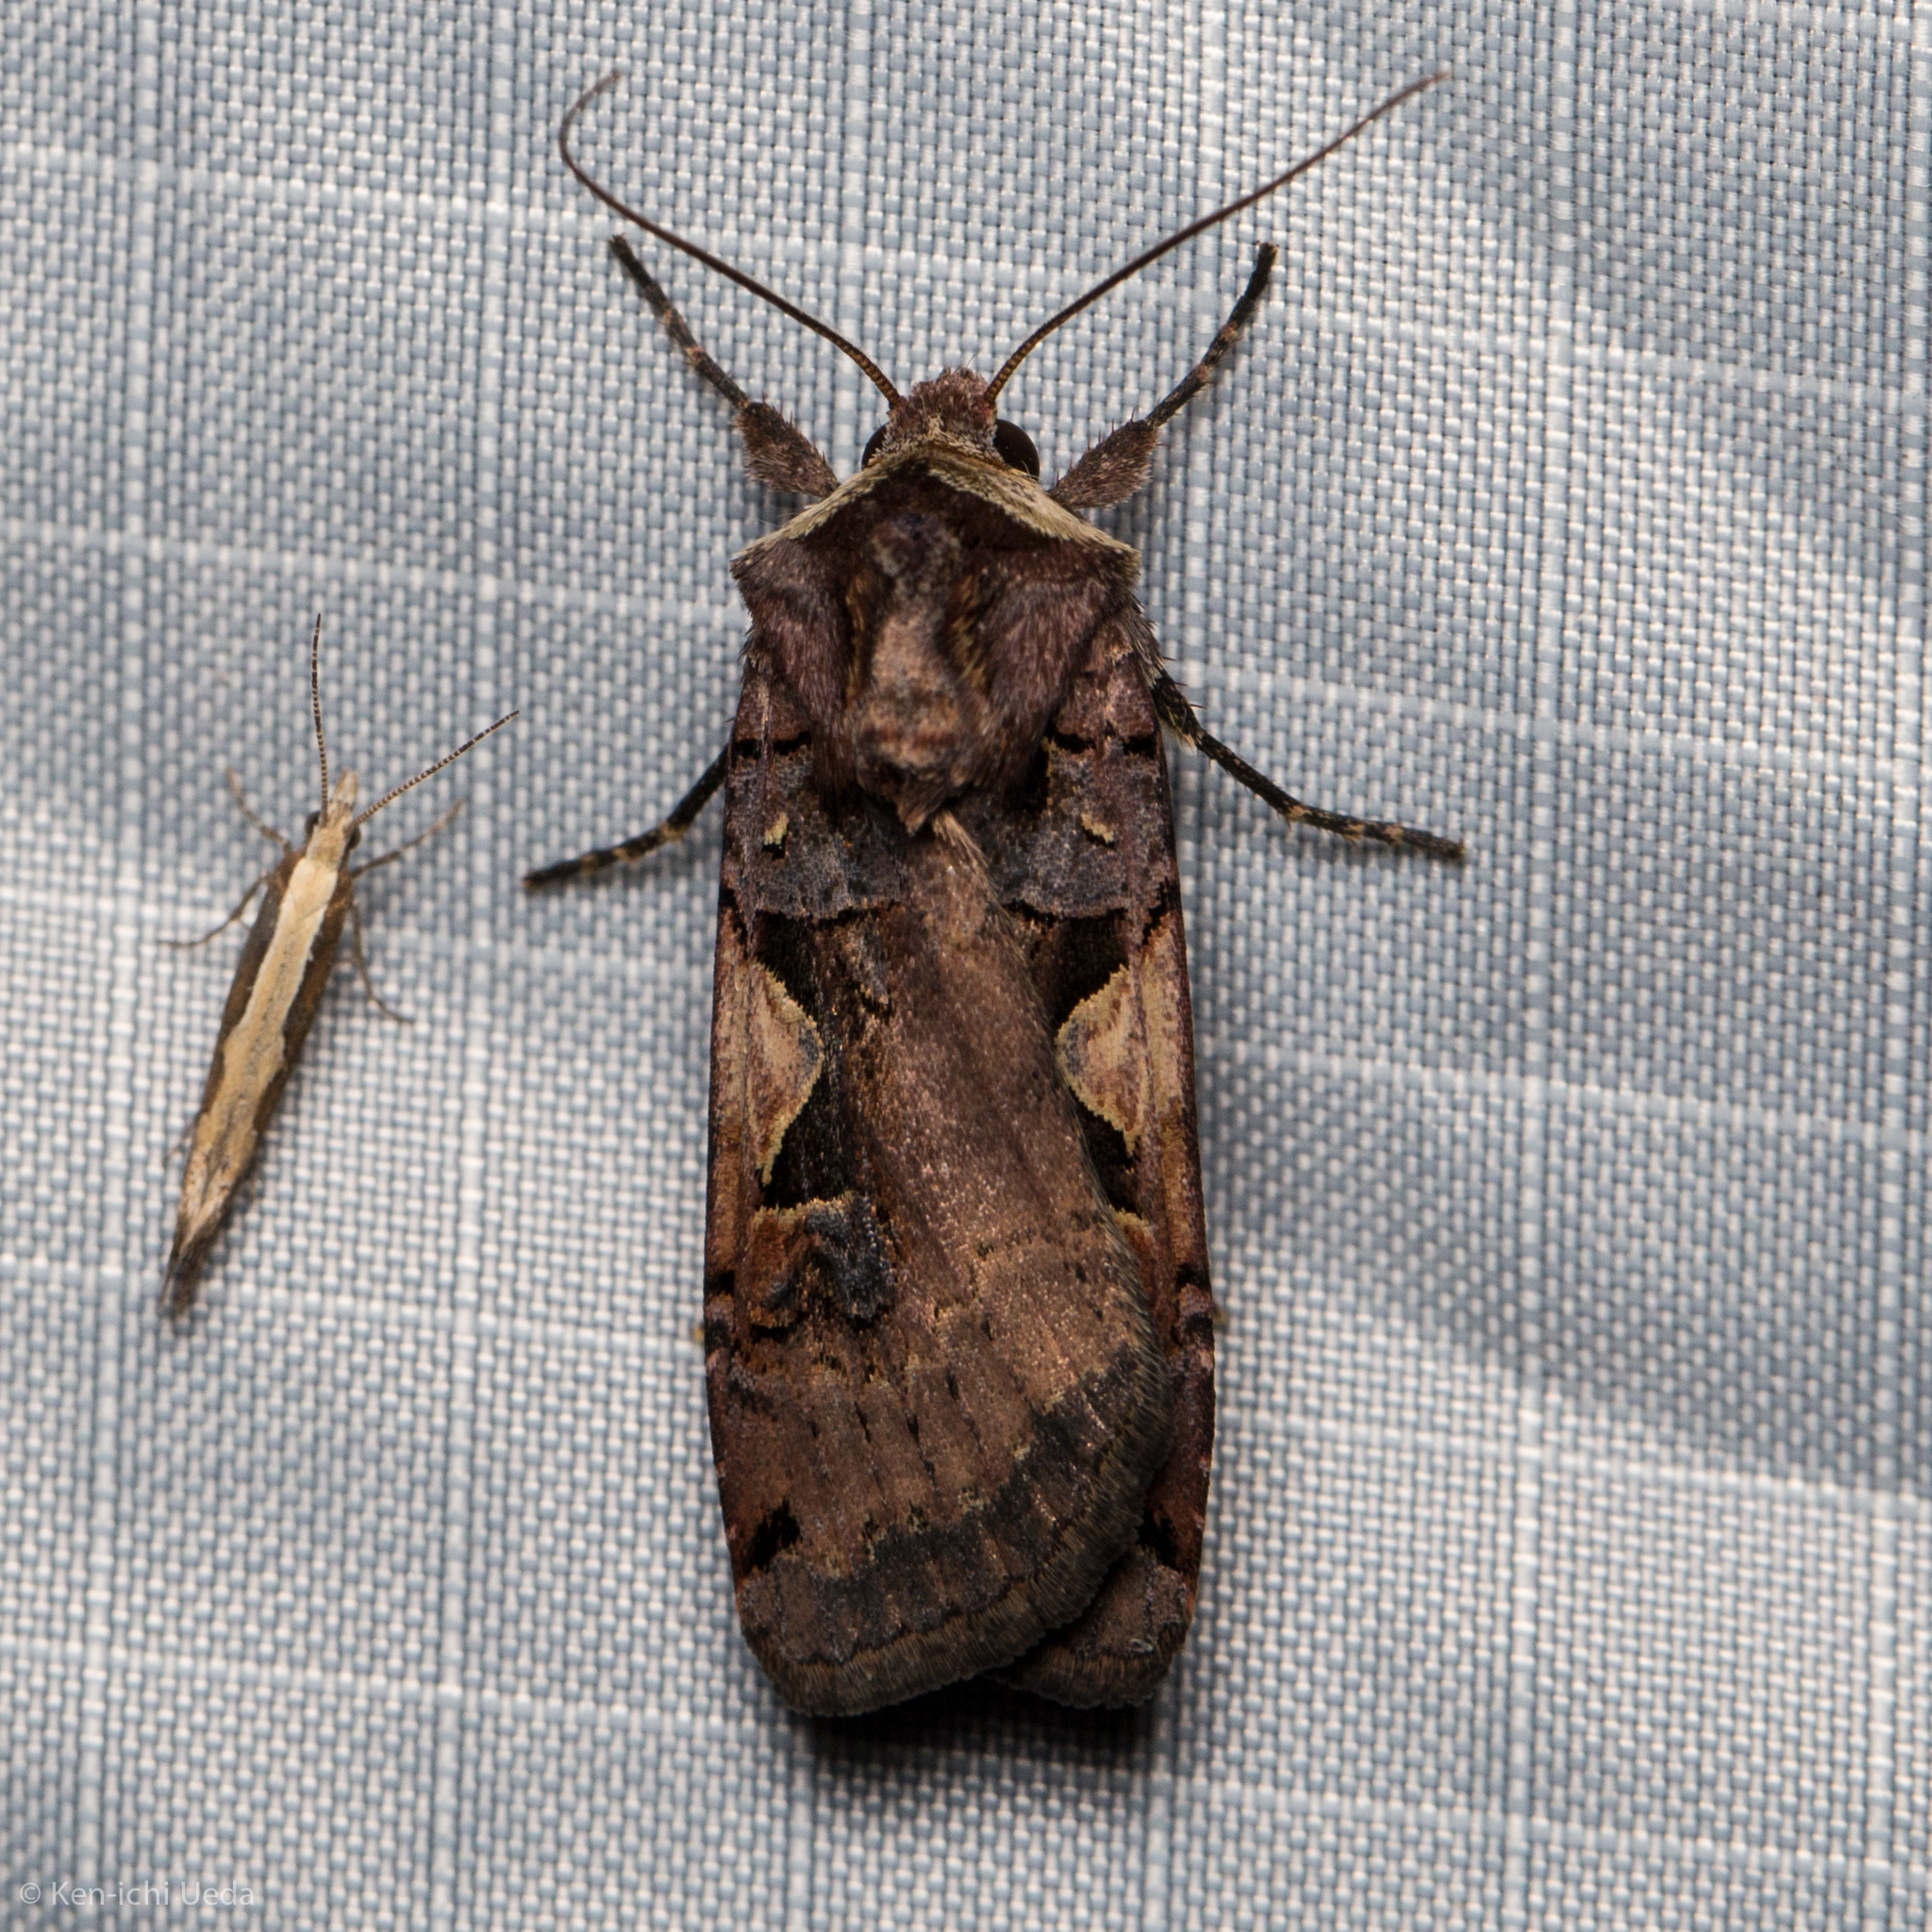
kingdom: Animalia
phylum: Arthropoda
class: Insecta
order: Lepidoptera
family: Noctuidae
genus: Xestia
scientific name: Xestia c-nigrum
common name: Setaceous hebrew character
